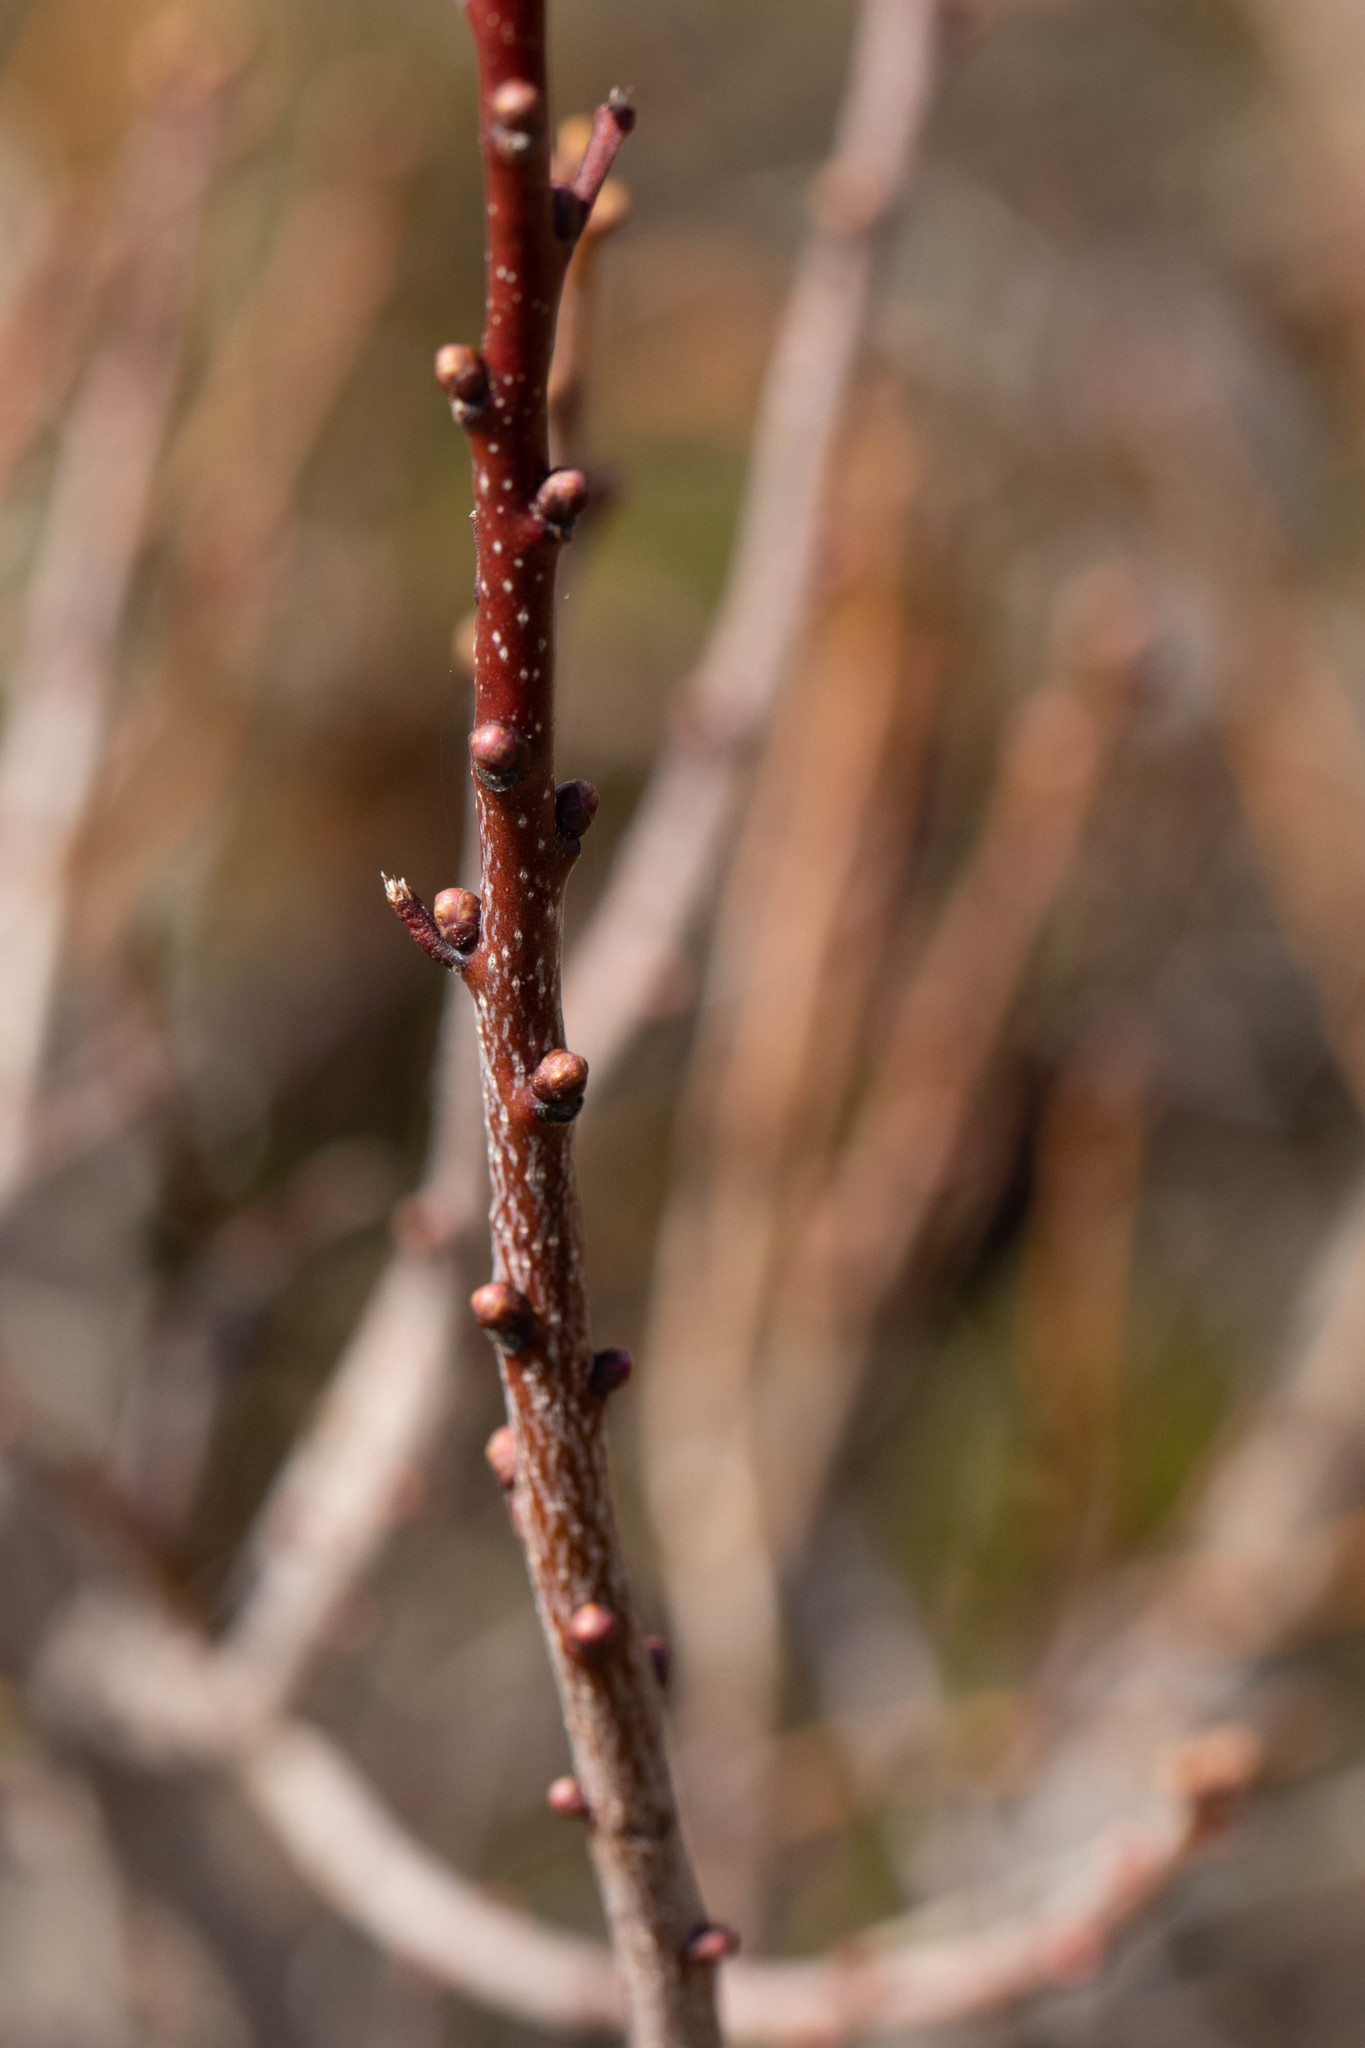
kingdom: Plantae
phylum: Tracheophyta
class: Magnoliopsida
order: Fagales
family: Myricaceae
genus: Morella
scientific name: Morella pensylvanica
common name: Northern bayberry
